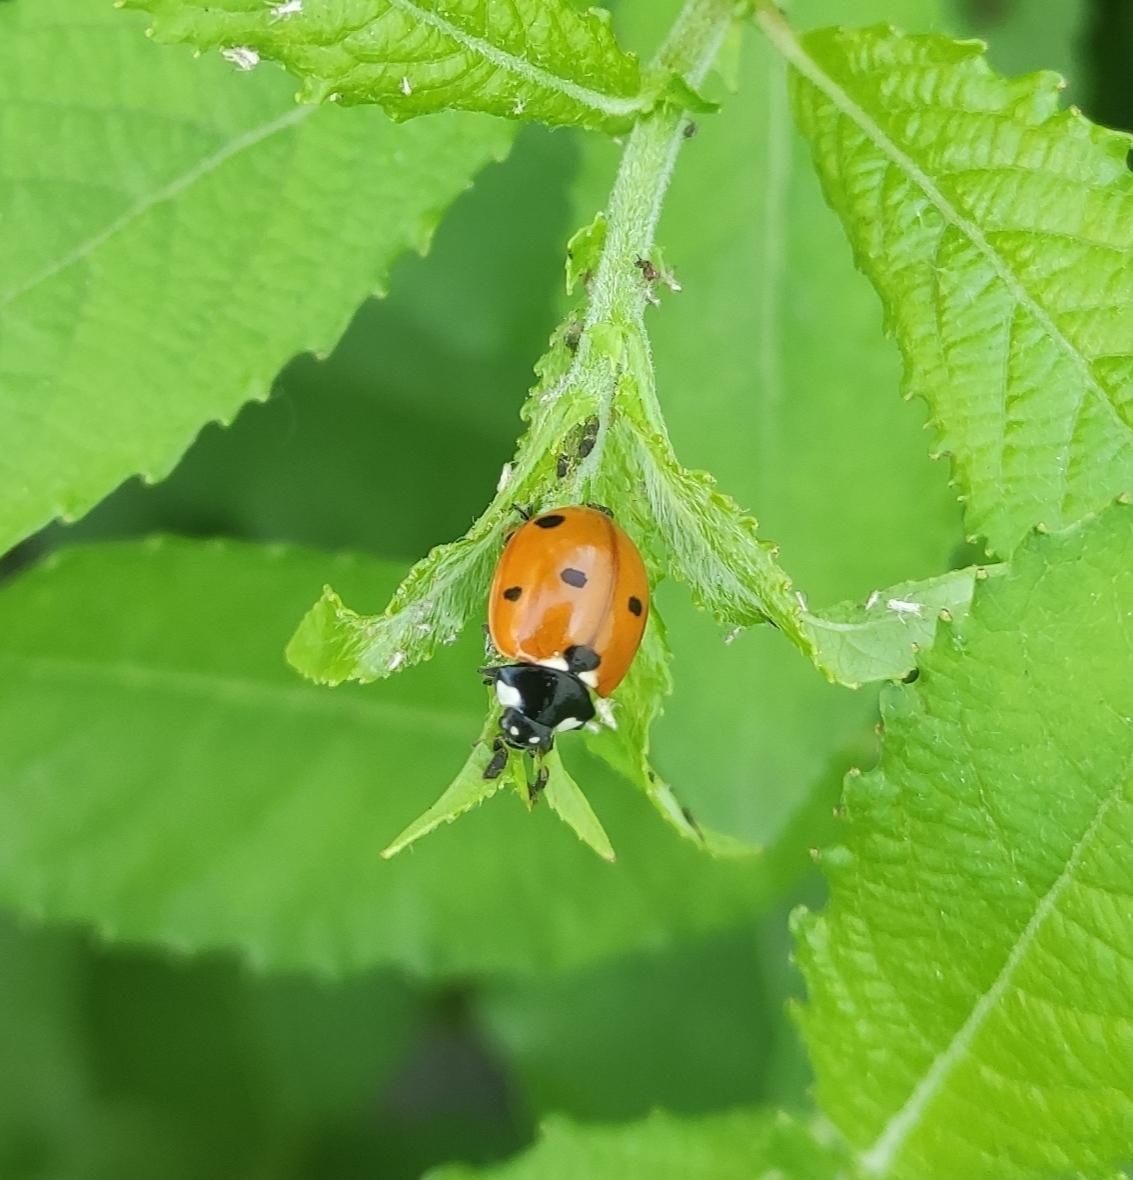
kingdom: Animalia
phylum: Arthropoda
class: Insecta
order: Coleoptera
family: Coccinellidae
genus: Coccinella
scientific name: Coccinella septempunctata
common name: Sevenspotted lady beetle
